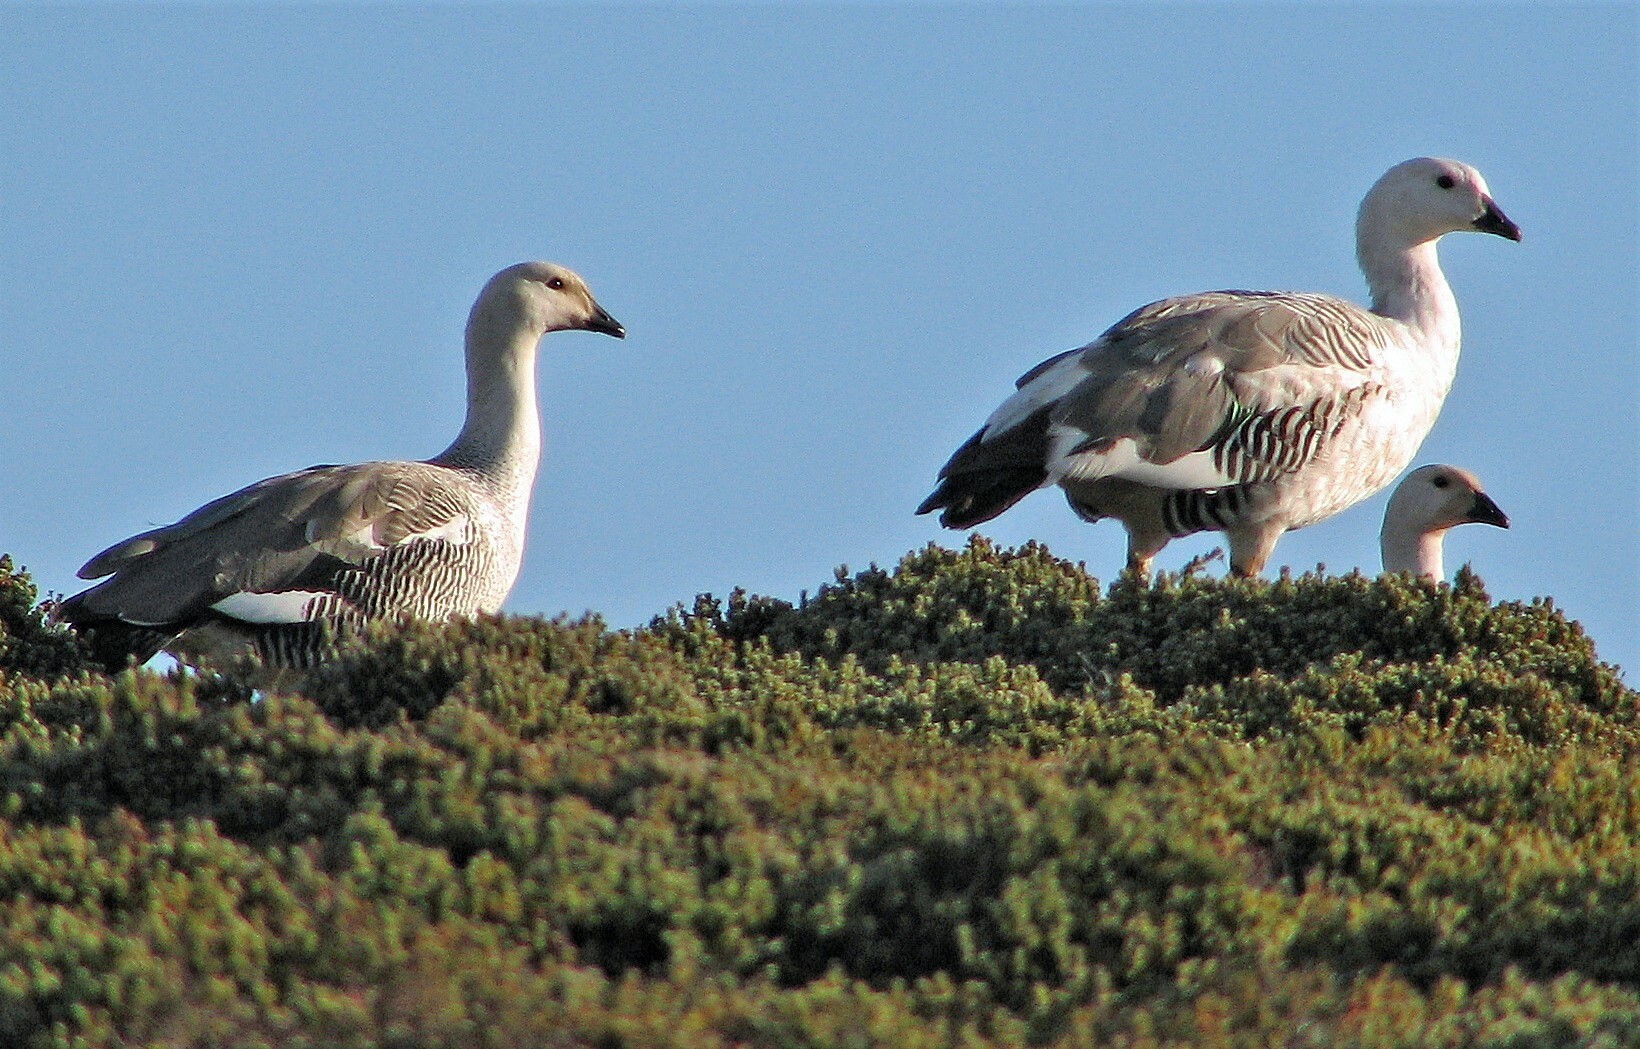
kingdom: Animalia
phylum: Chordata
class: Aves
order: Anseriformes
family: Anatidae
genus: Chloephaga
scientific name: Chloephaga picta
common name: Upland goose
